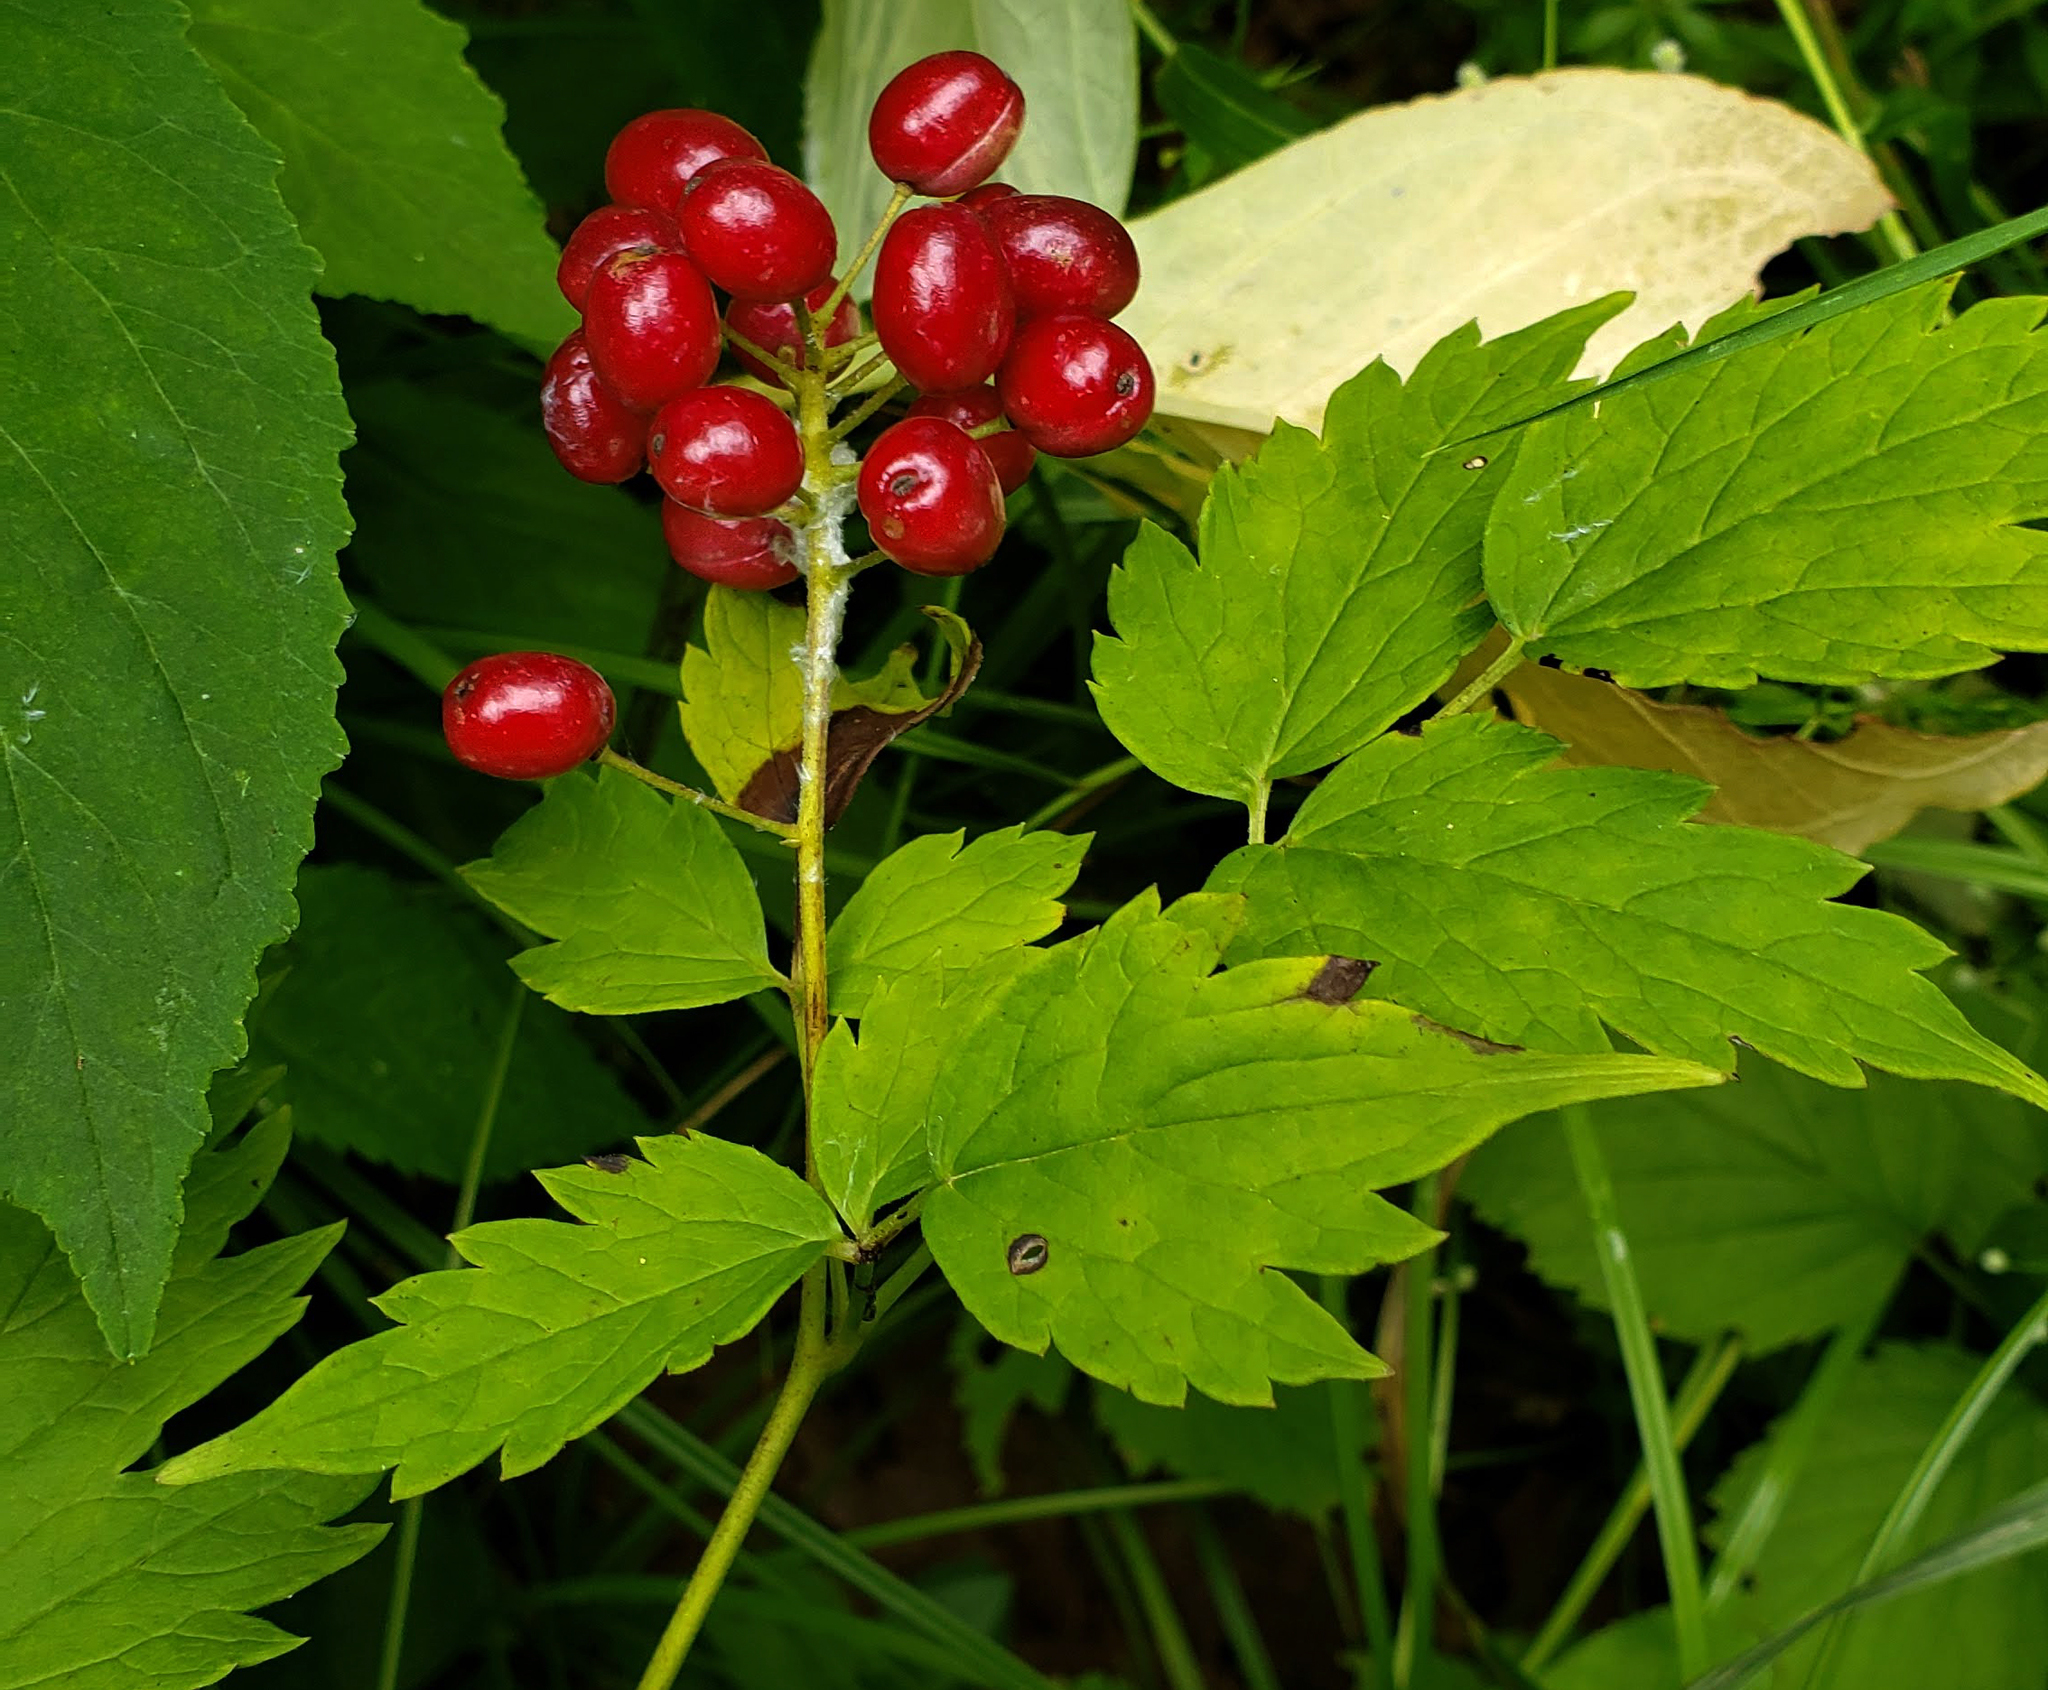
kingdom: Plantae
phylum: Tracheophyta
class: Magnoliopsida
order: Ranunculales
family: Ranunculaceae
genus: Actaea
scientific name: Actaea rubra
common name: Red baneberry
